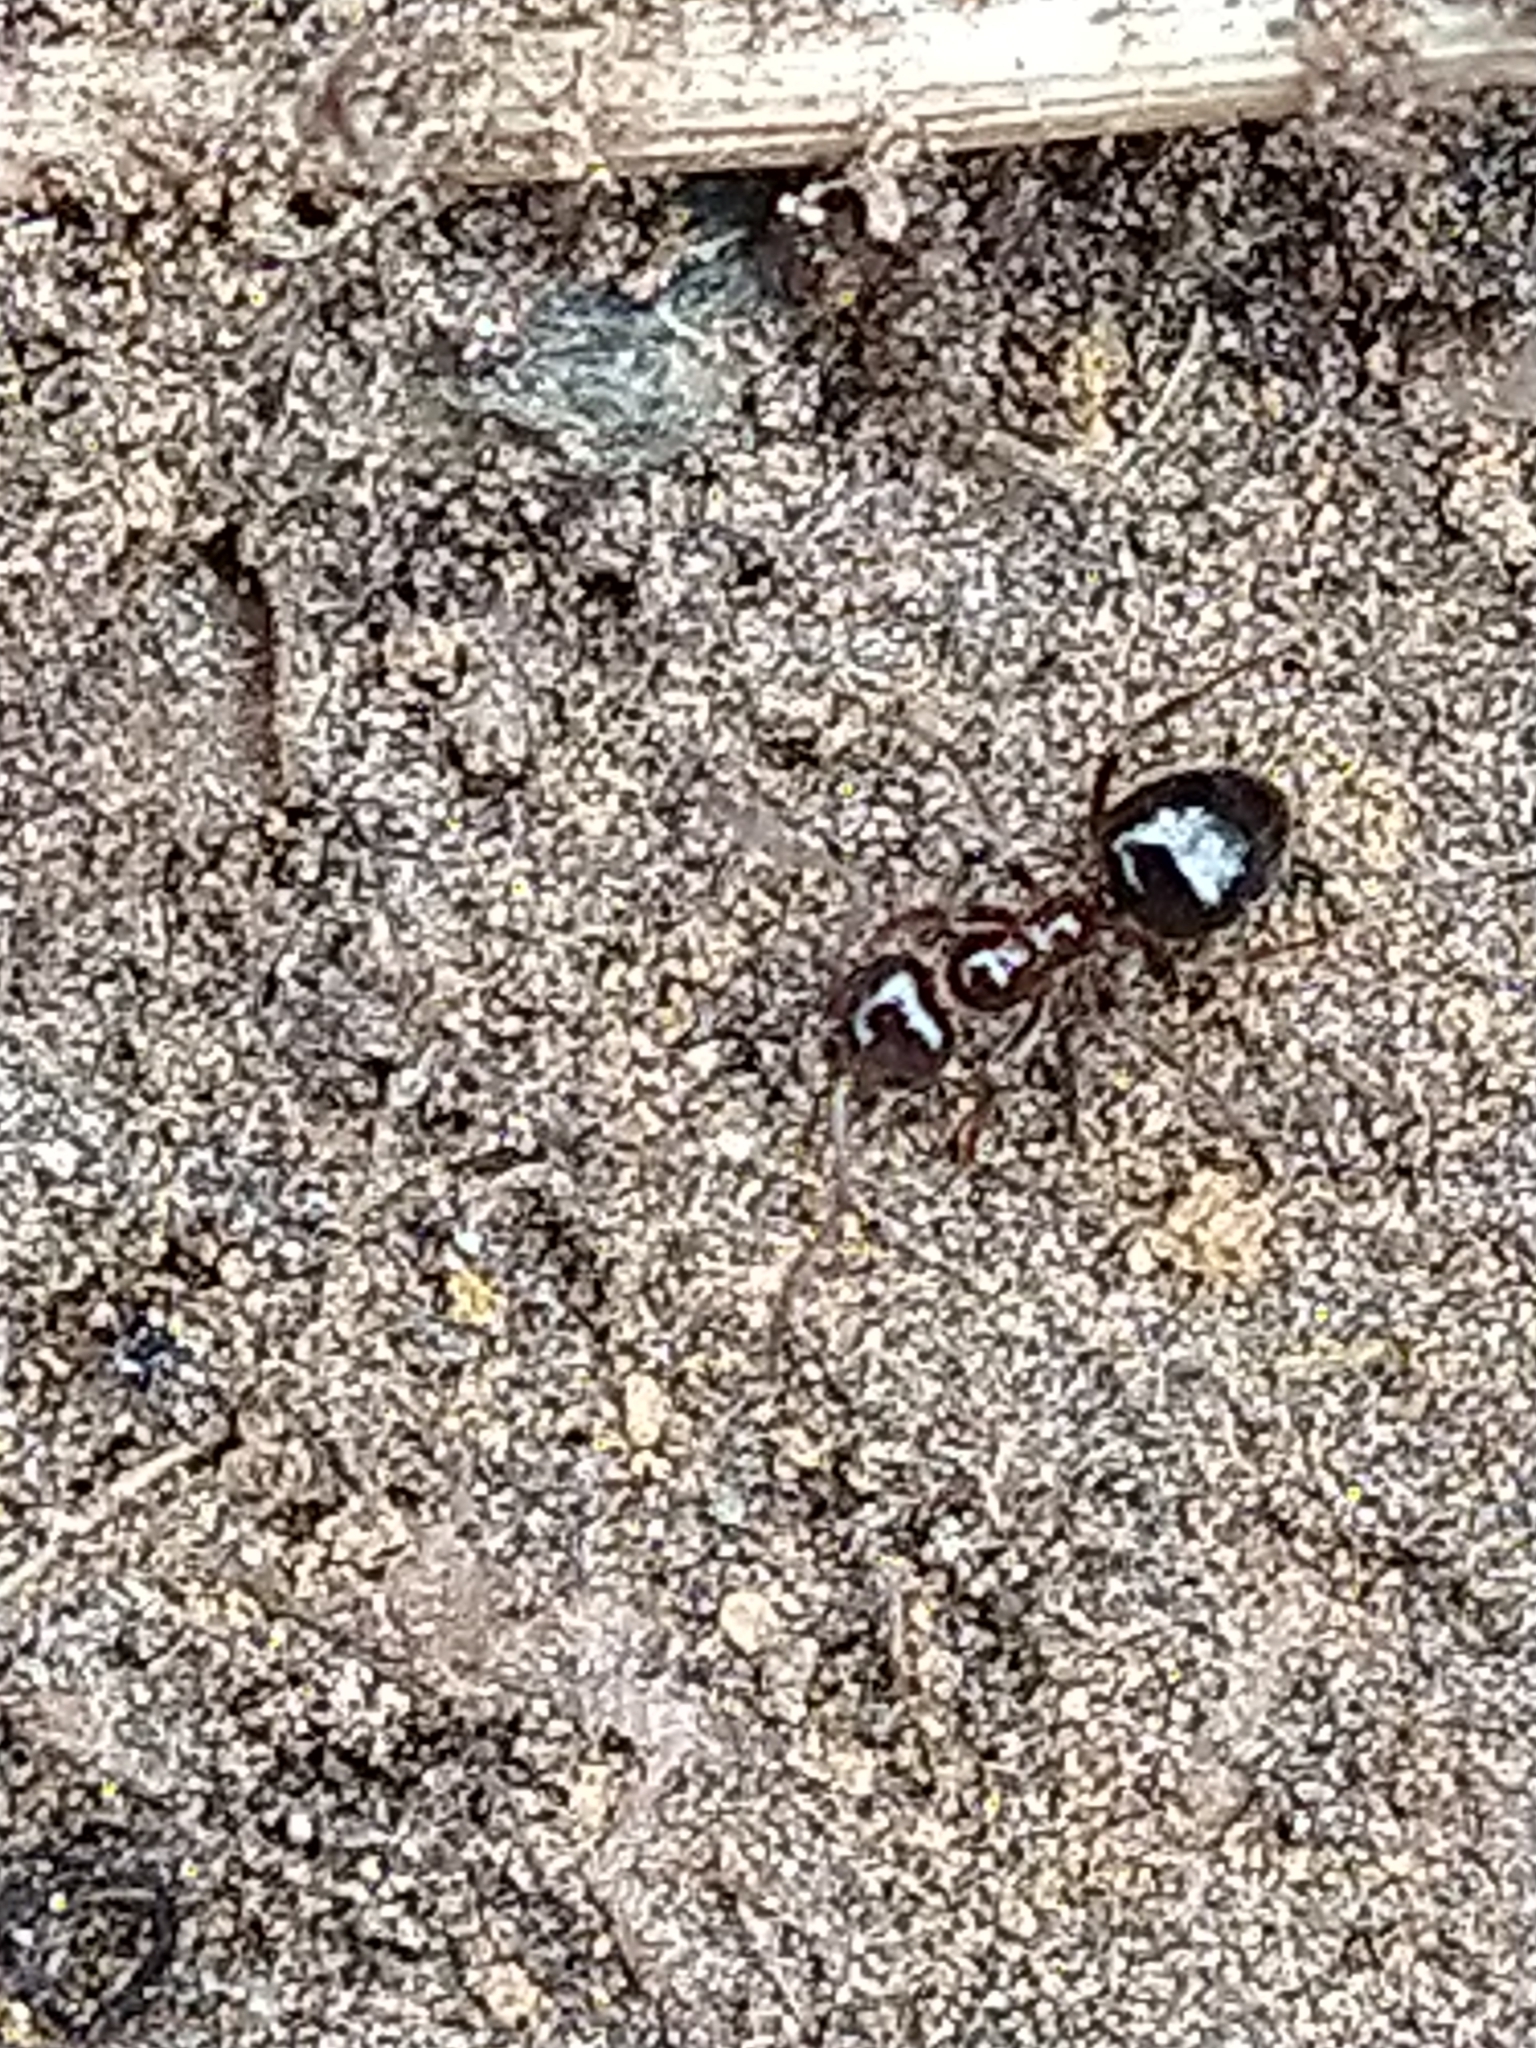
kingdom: Animalia
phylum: Arthropoda
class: Insecta
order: Hymenoptera
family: Formicidae
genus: Lasiophanes
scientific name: Lasiophanes
